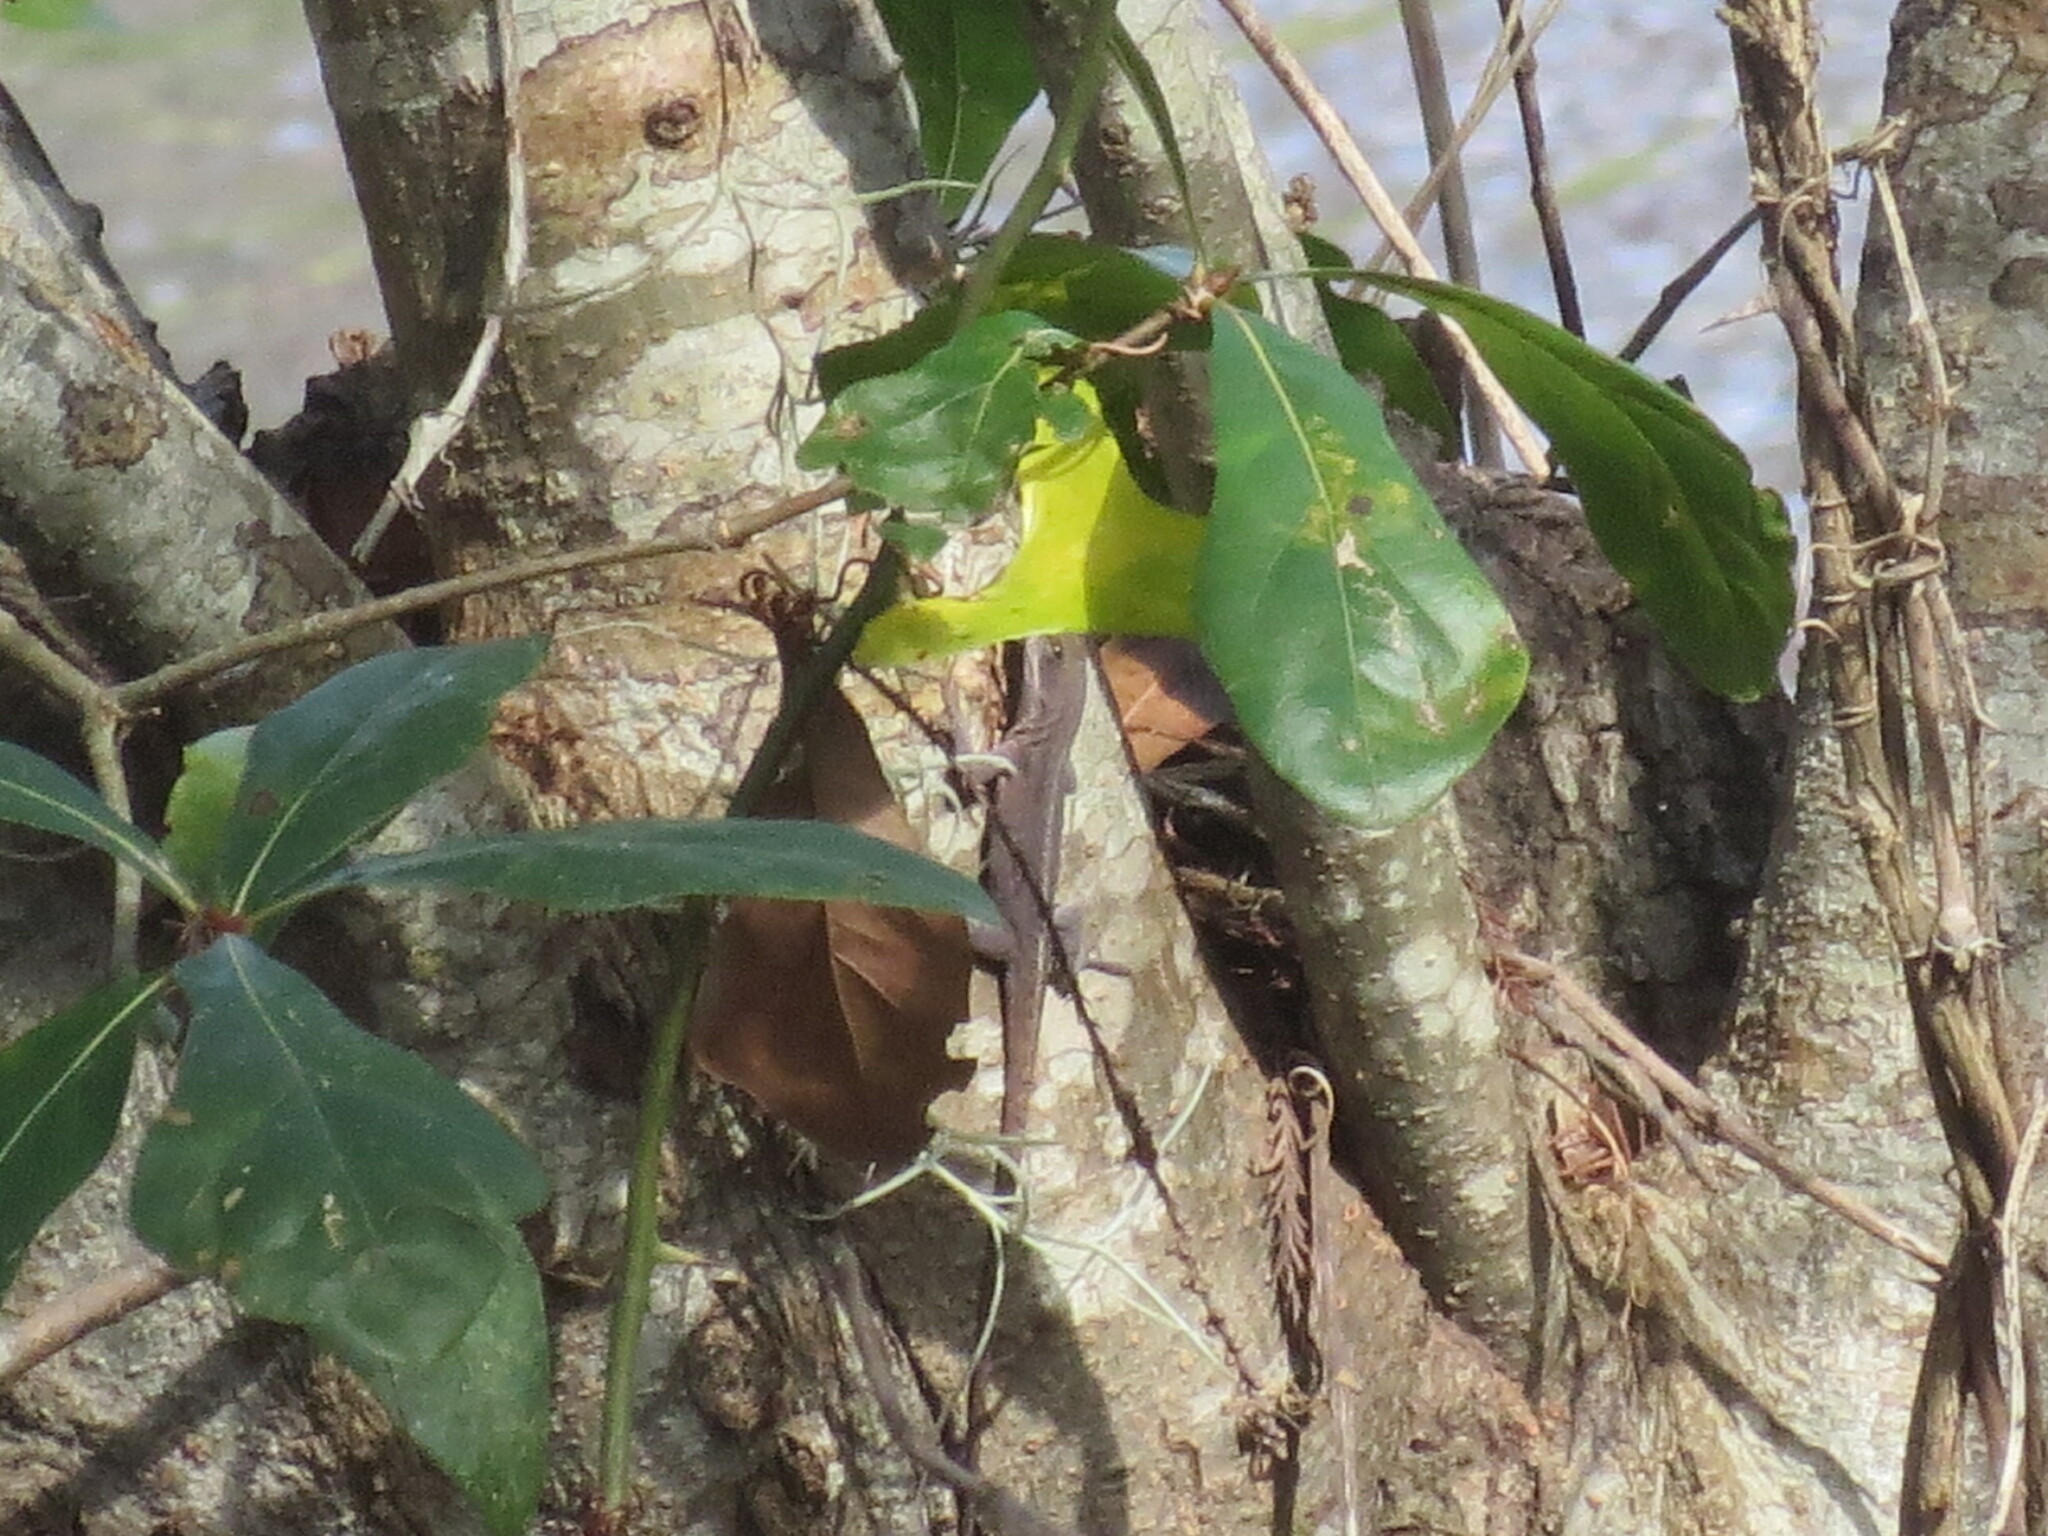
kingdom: Animalia
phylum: Chordata
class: Squamata
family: Dactyloidae
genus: Anolis
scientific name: Anolis carolinensis
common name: Green anole
